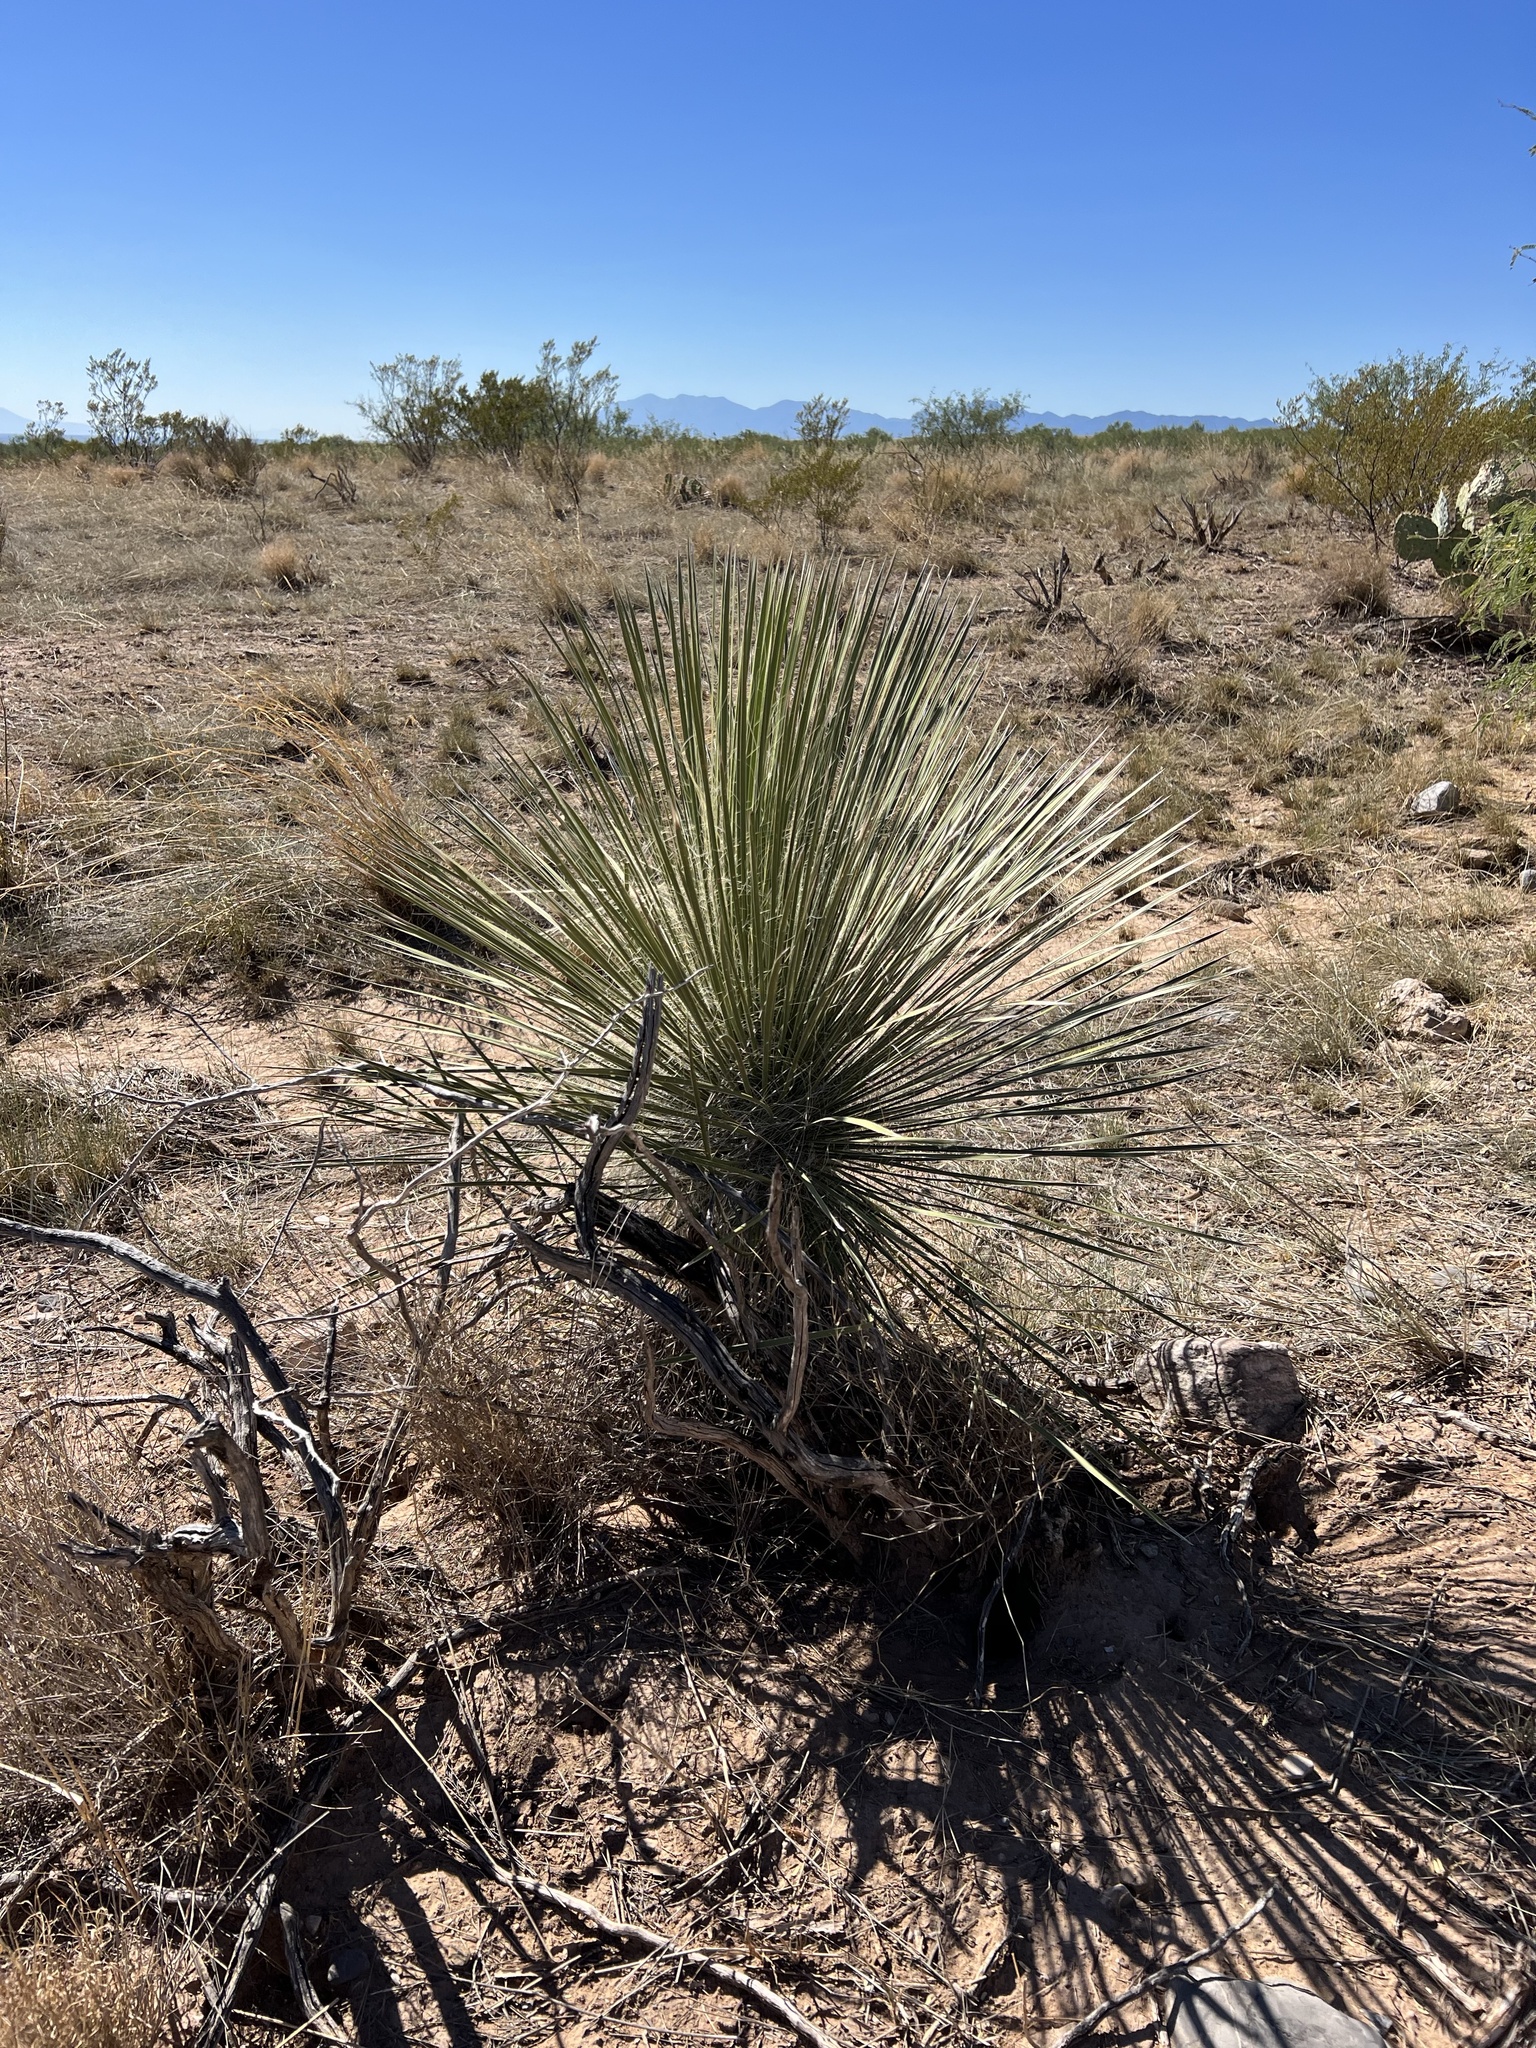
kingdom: Plantae
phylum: Tracheophyta
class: Liliopsida
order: Asparagales
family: Asparagaceae
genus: Yucca
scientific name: Yucca elata
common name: Palmella
